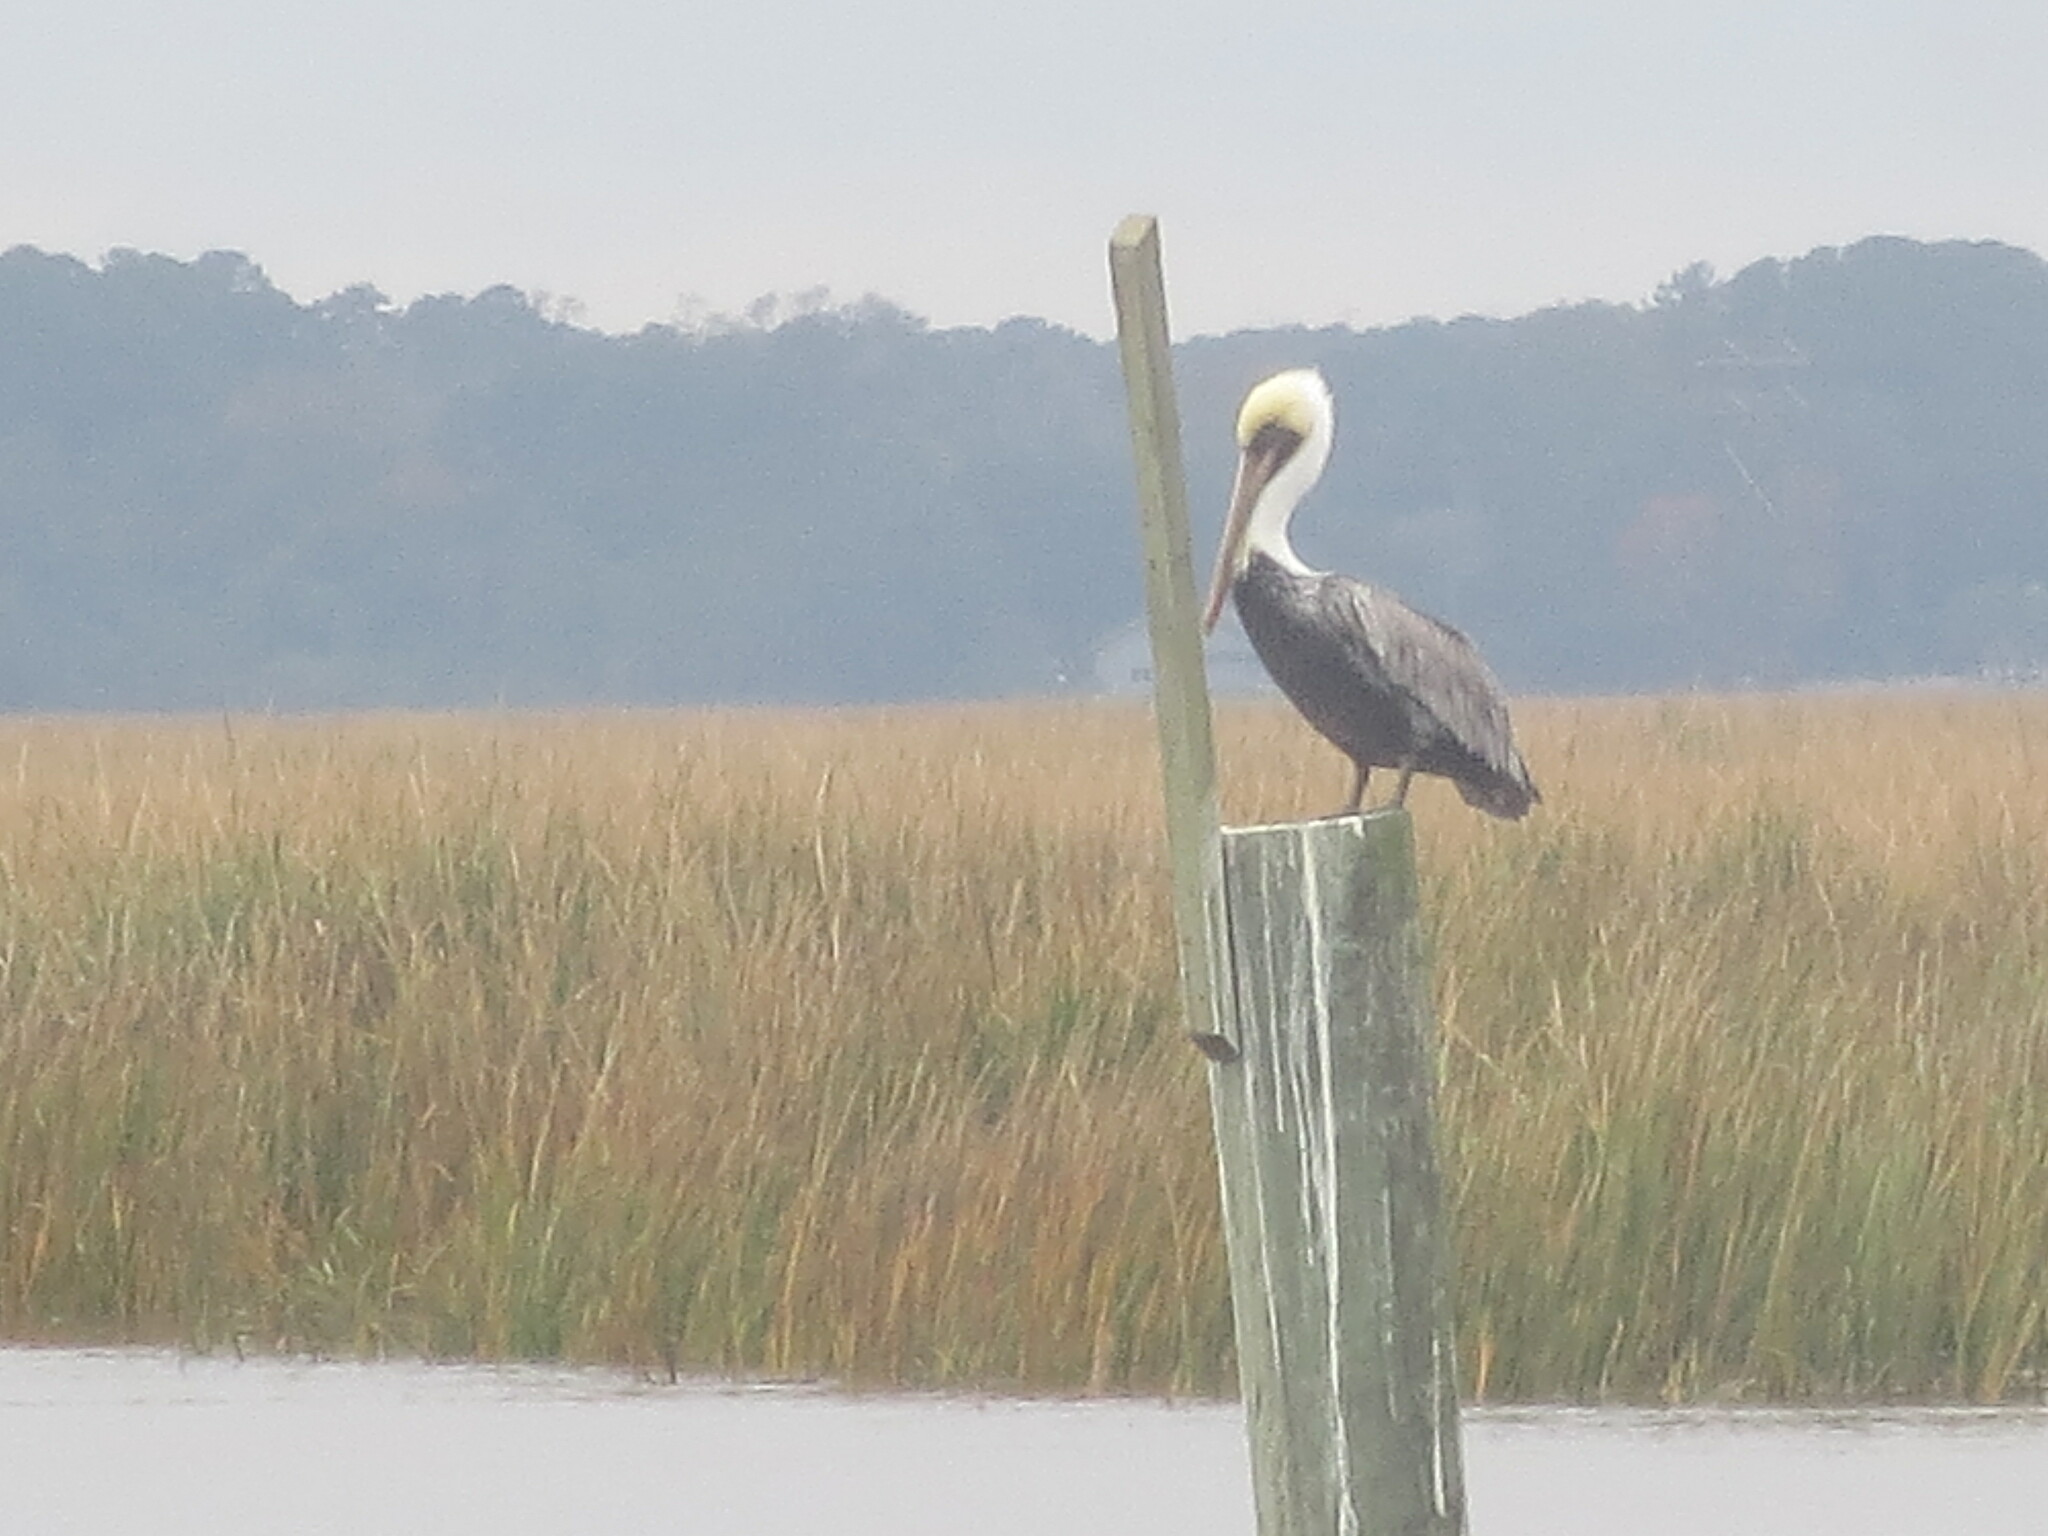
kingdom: Animalia
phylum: Chordata
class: Aves
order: Pelecaniformes
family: Pelecanidae
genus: Pelecanus
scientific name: Pelecanus occidentalis
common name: Brown pelican
